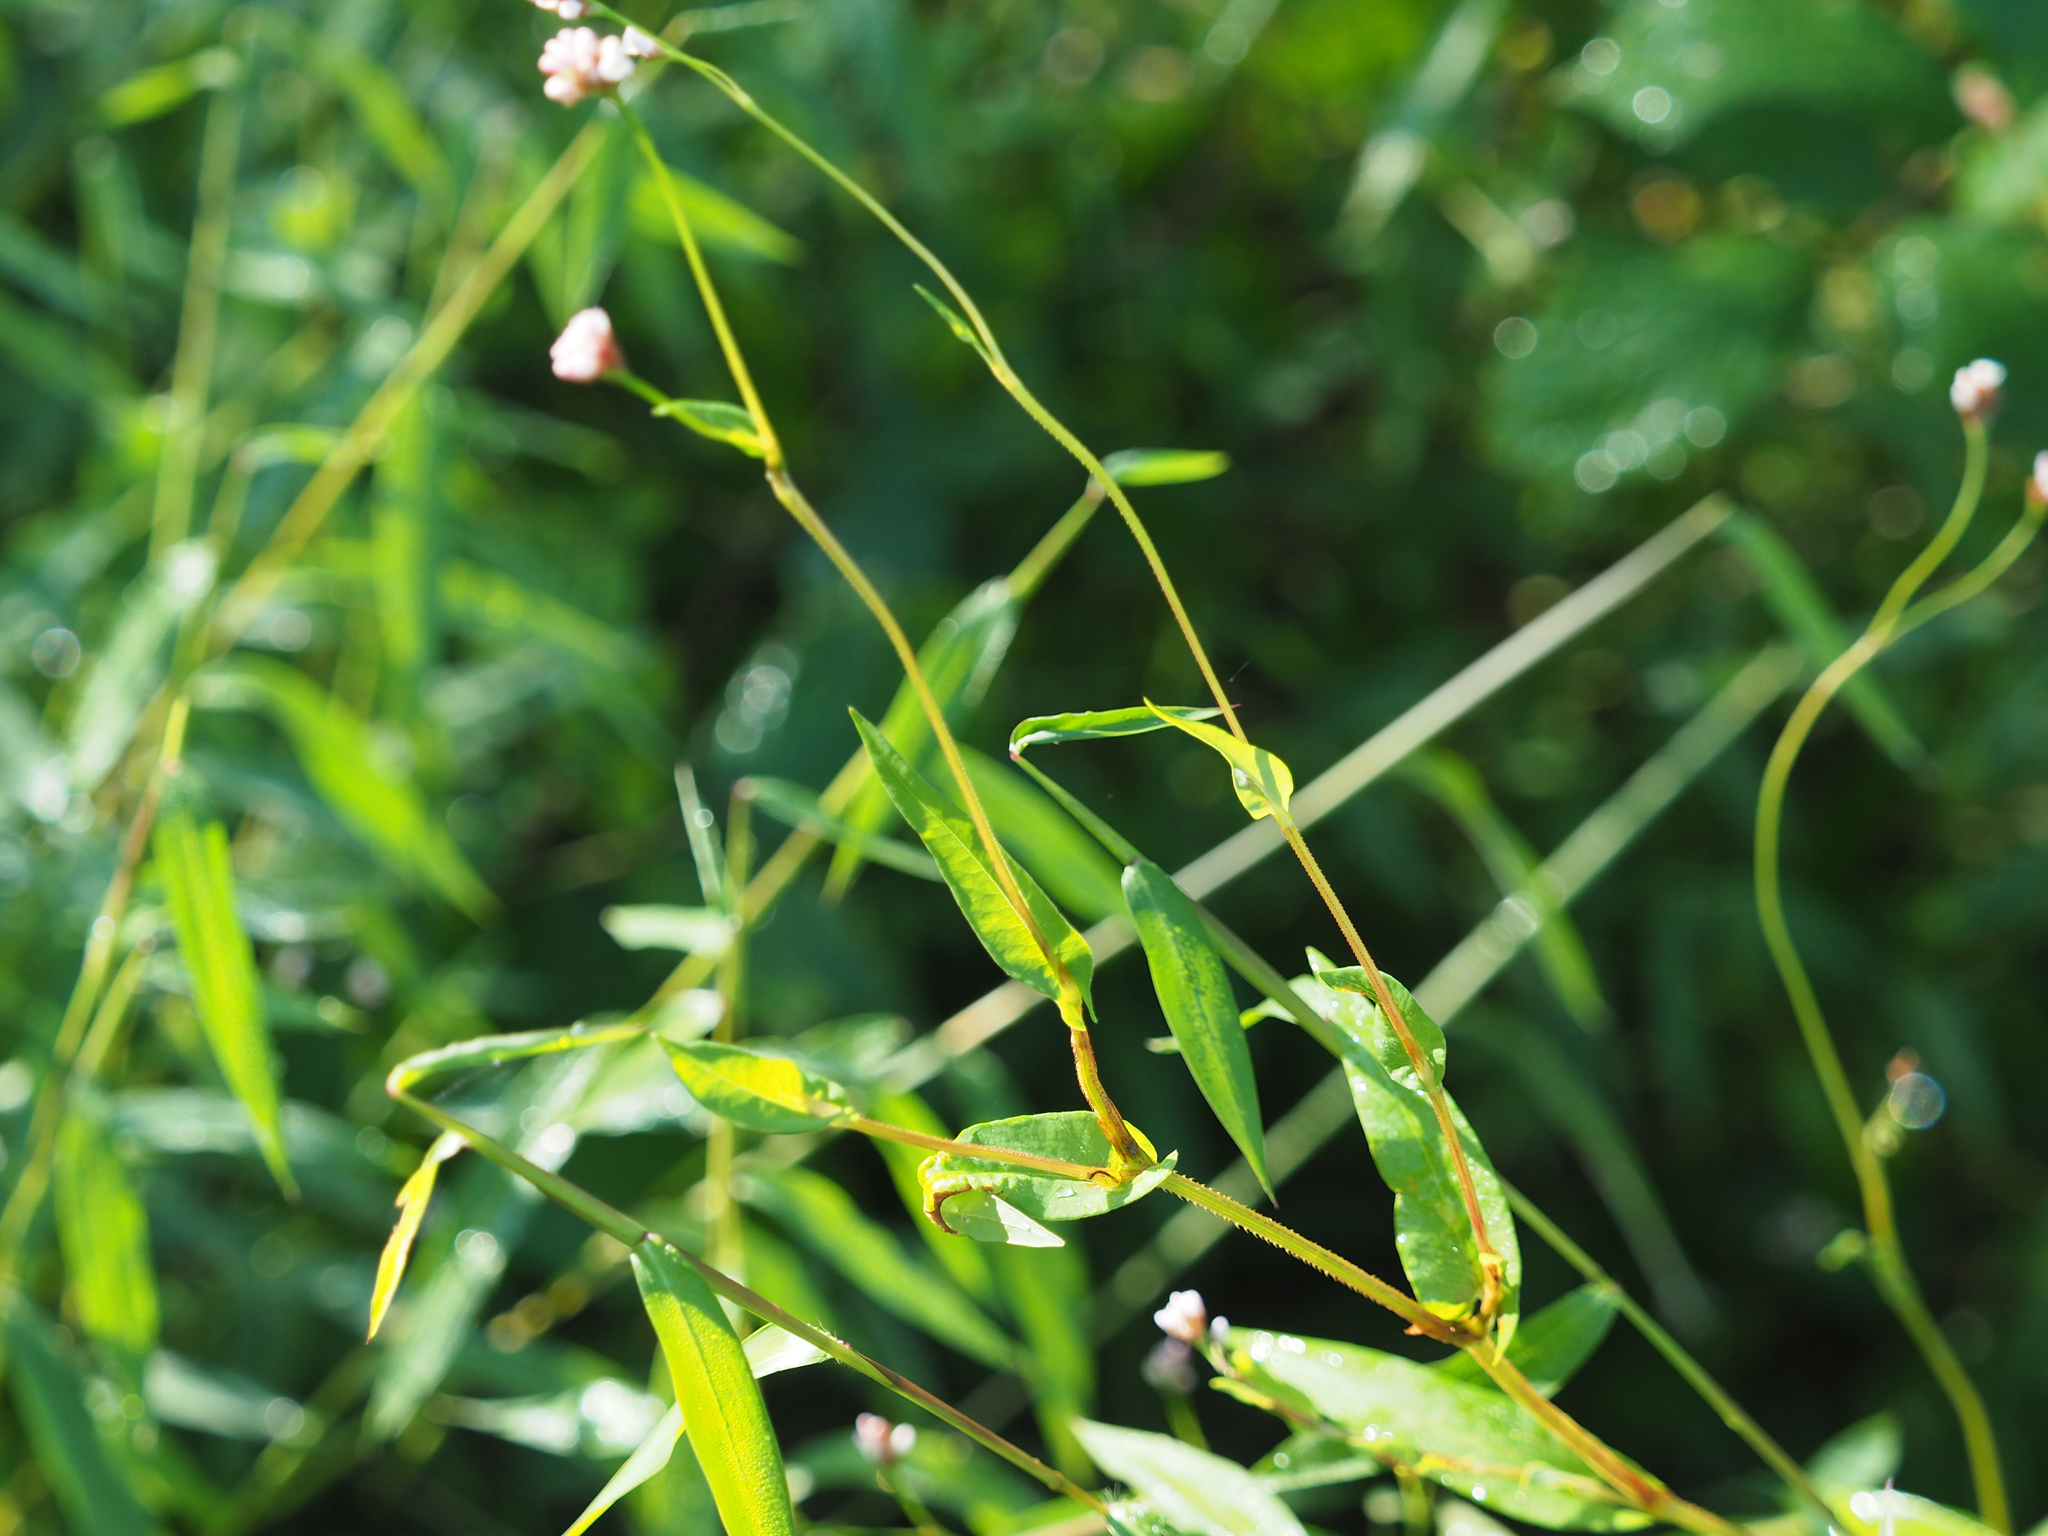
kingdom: Plantae
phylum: Tracheophyta
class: Magnoliopsida
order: Caryophyllales
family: Polygonaceae
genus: Persicaria
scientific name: Persicaria sagittata
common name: American tearthumb
